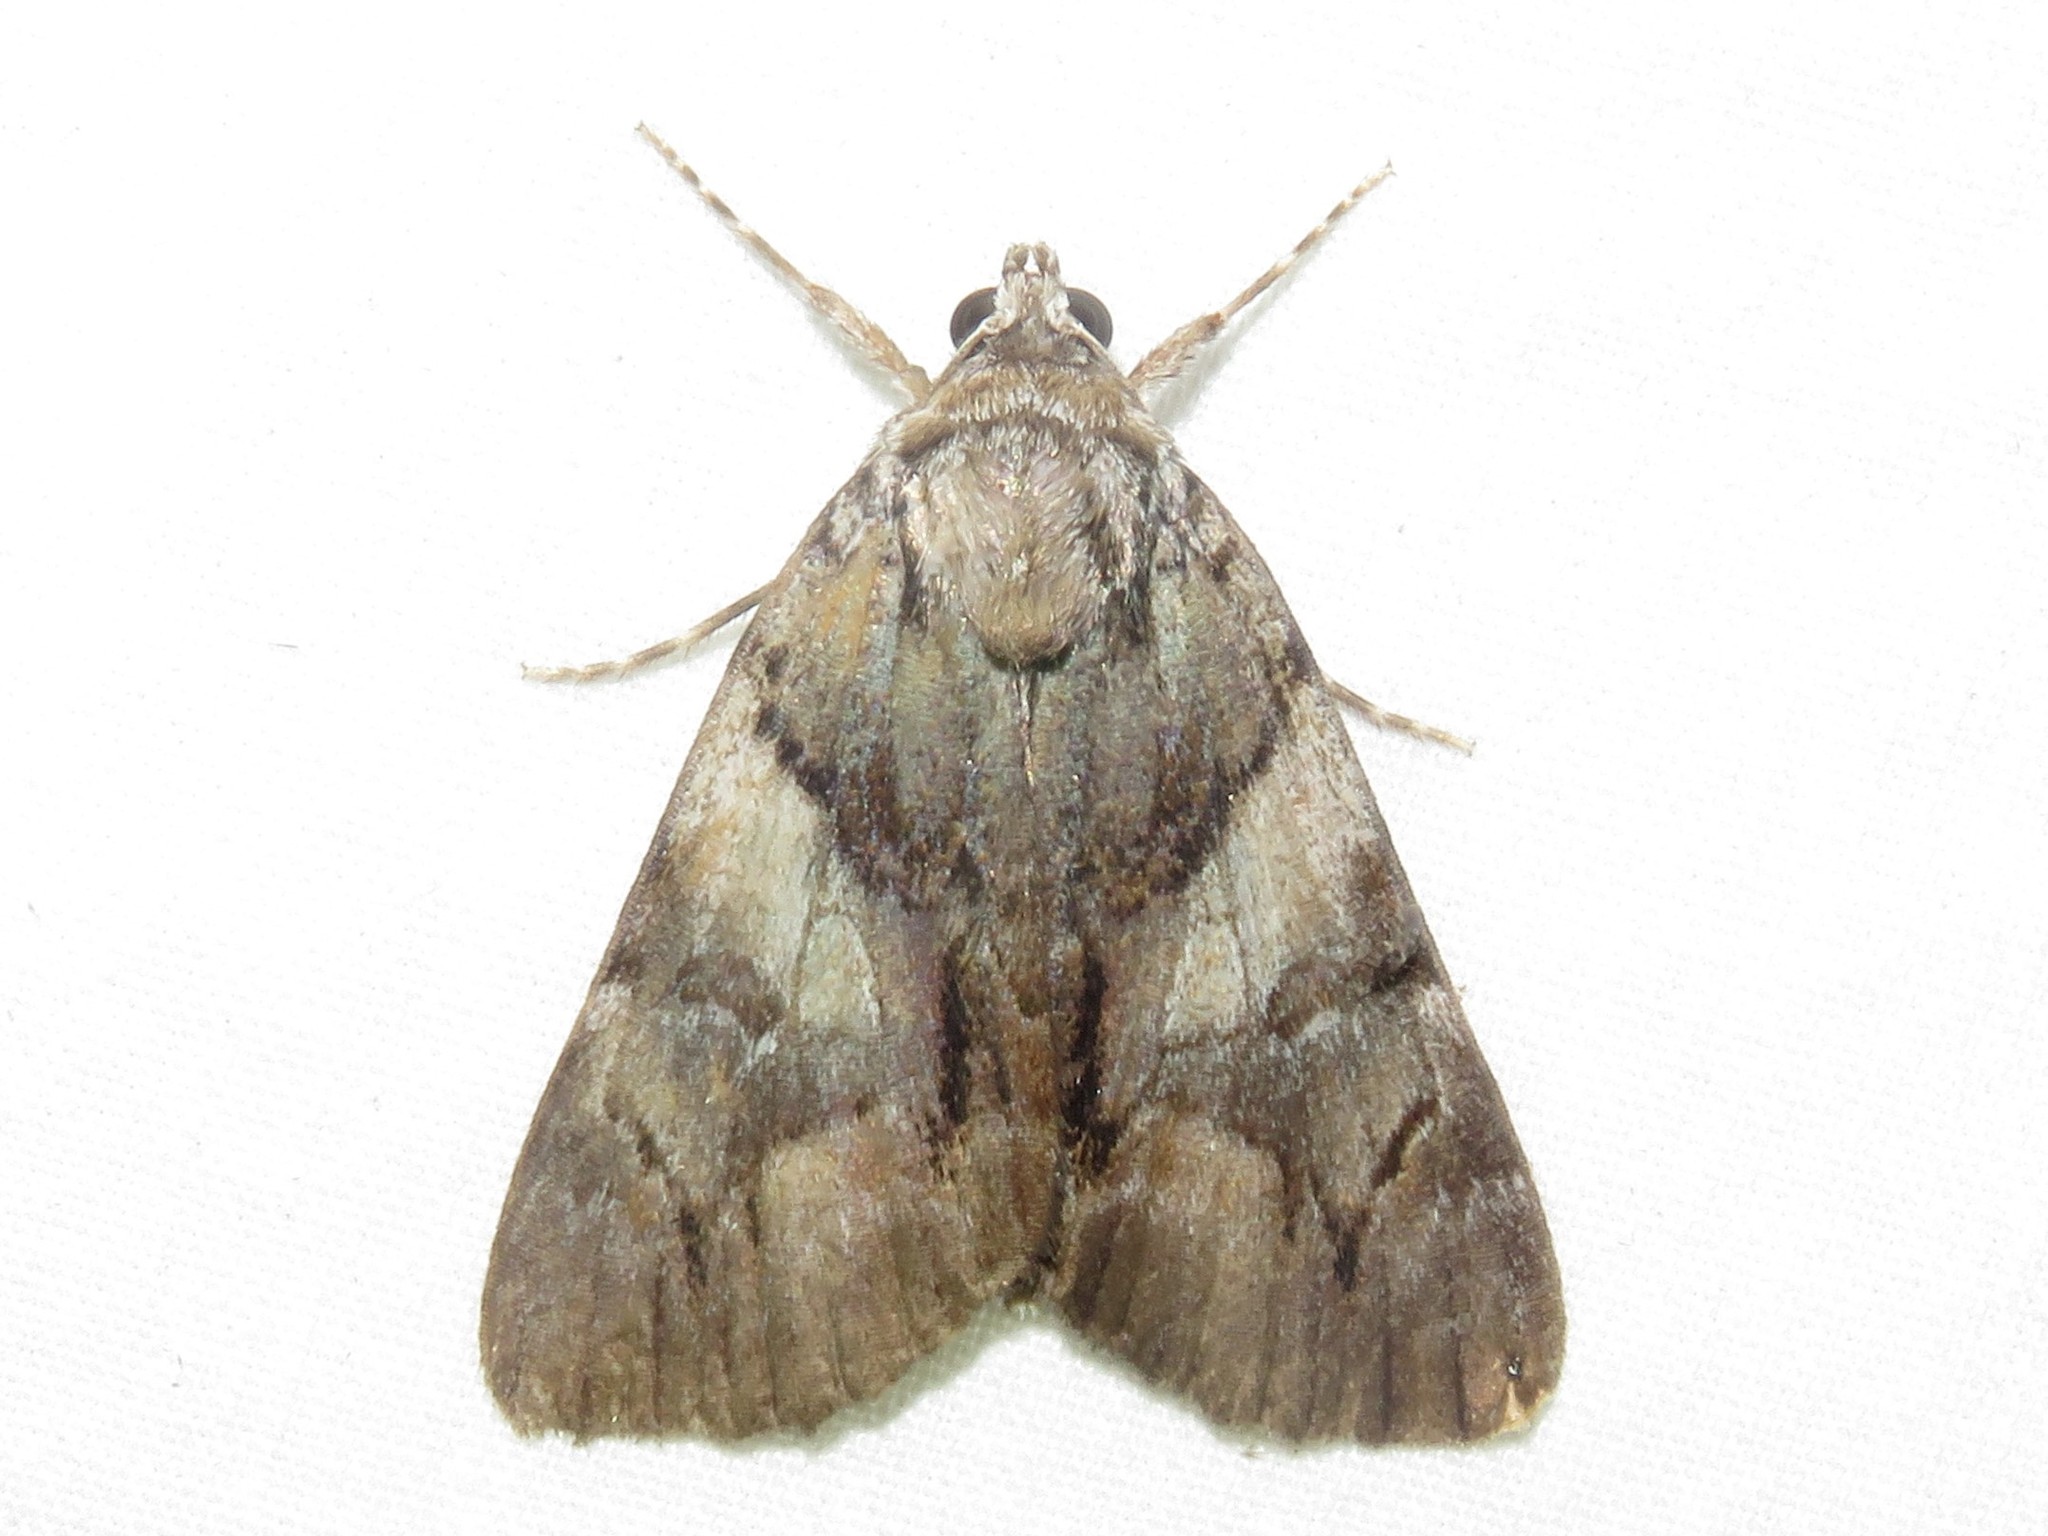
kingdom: Animalia
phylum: Arthropoda
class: Insecta
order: Lepidoptera
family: Erebidae
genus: Catocala
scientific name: Catocala blandula
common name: Charming underwing
